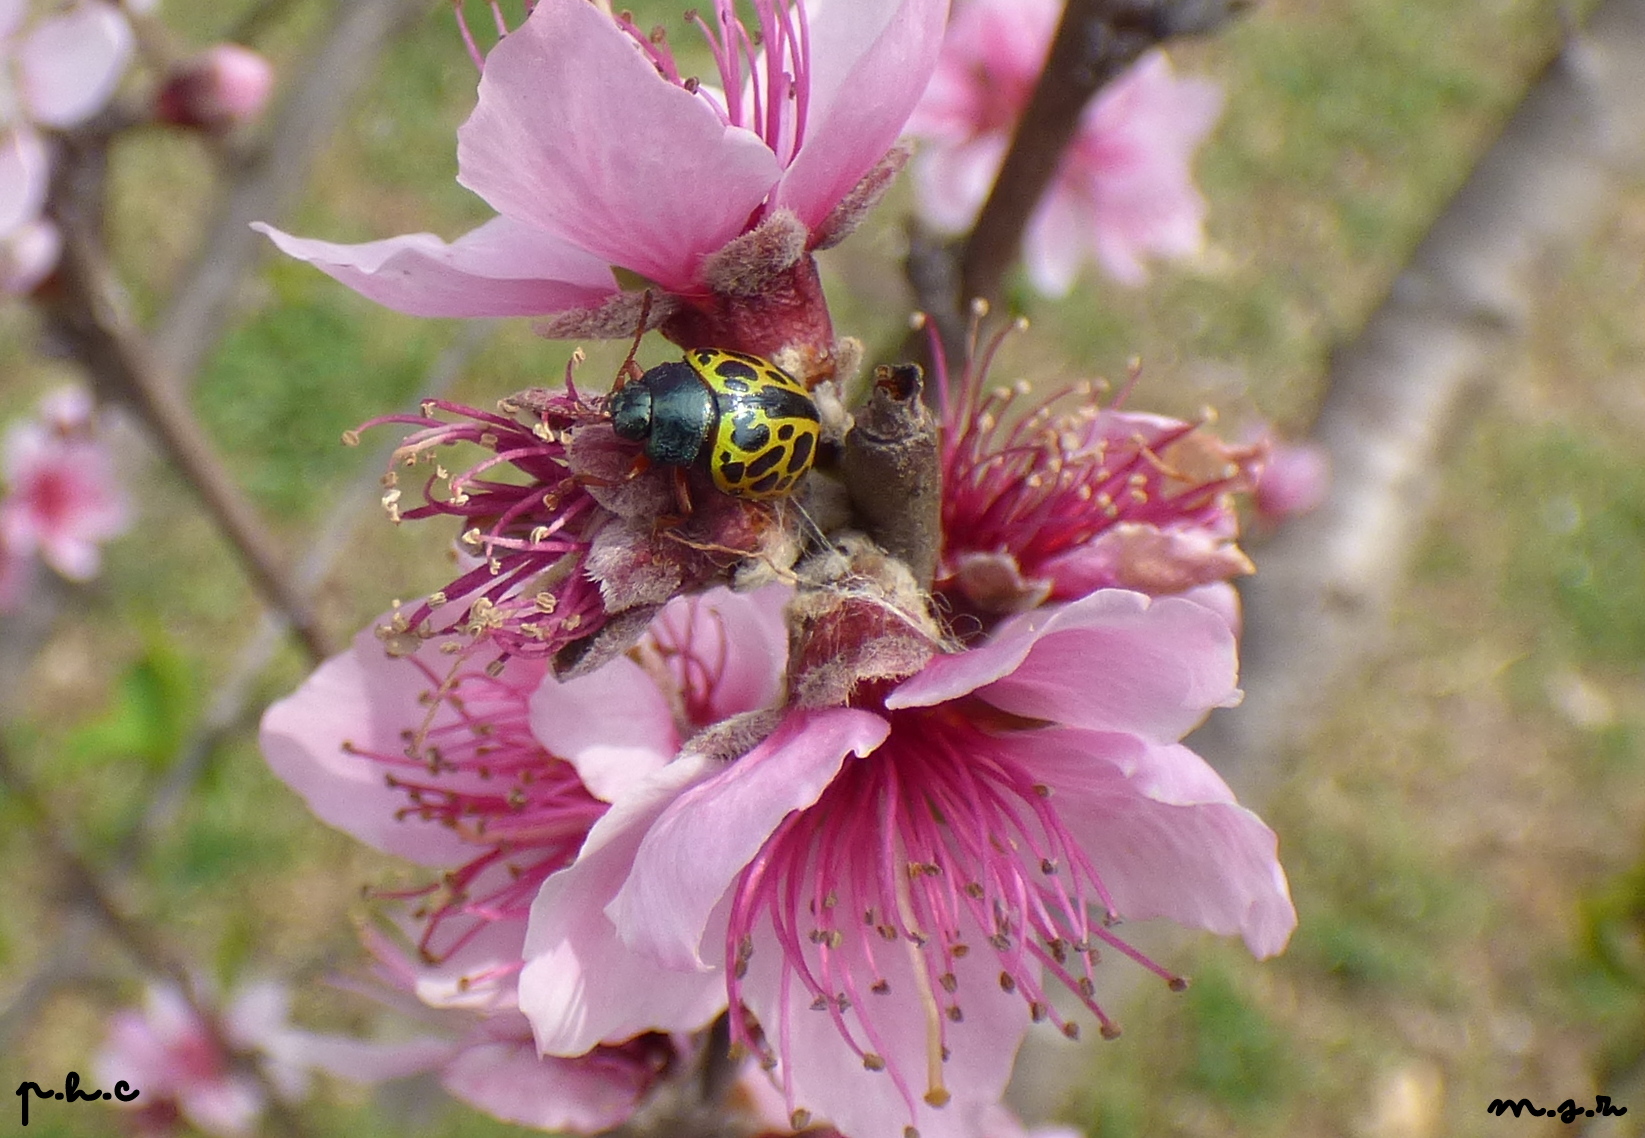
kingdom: Animalia
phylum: Arthropoda
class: Insecta
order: Coleoptera
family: Chrysomelidae
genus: Calligrapha
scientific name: Calligrapha polyspila
